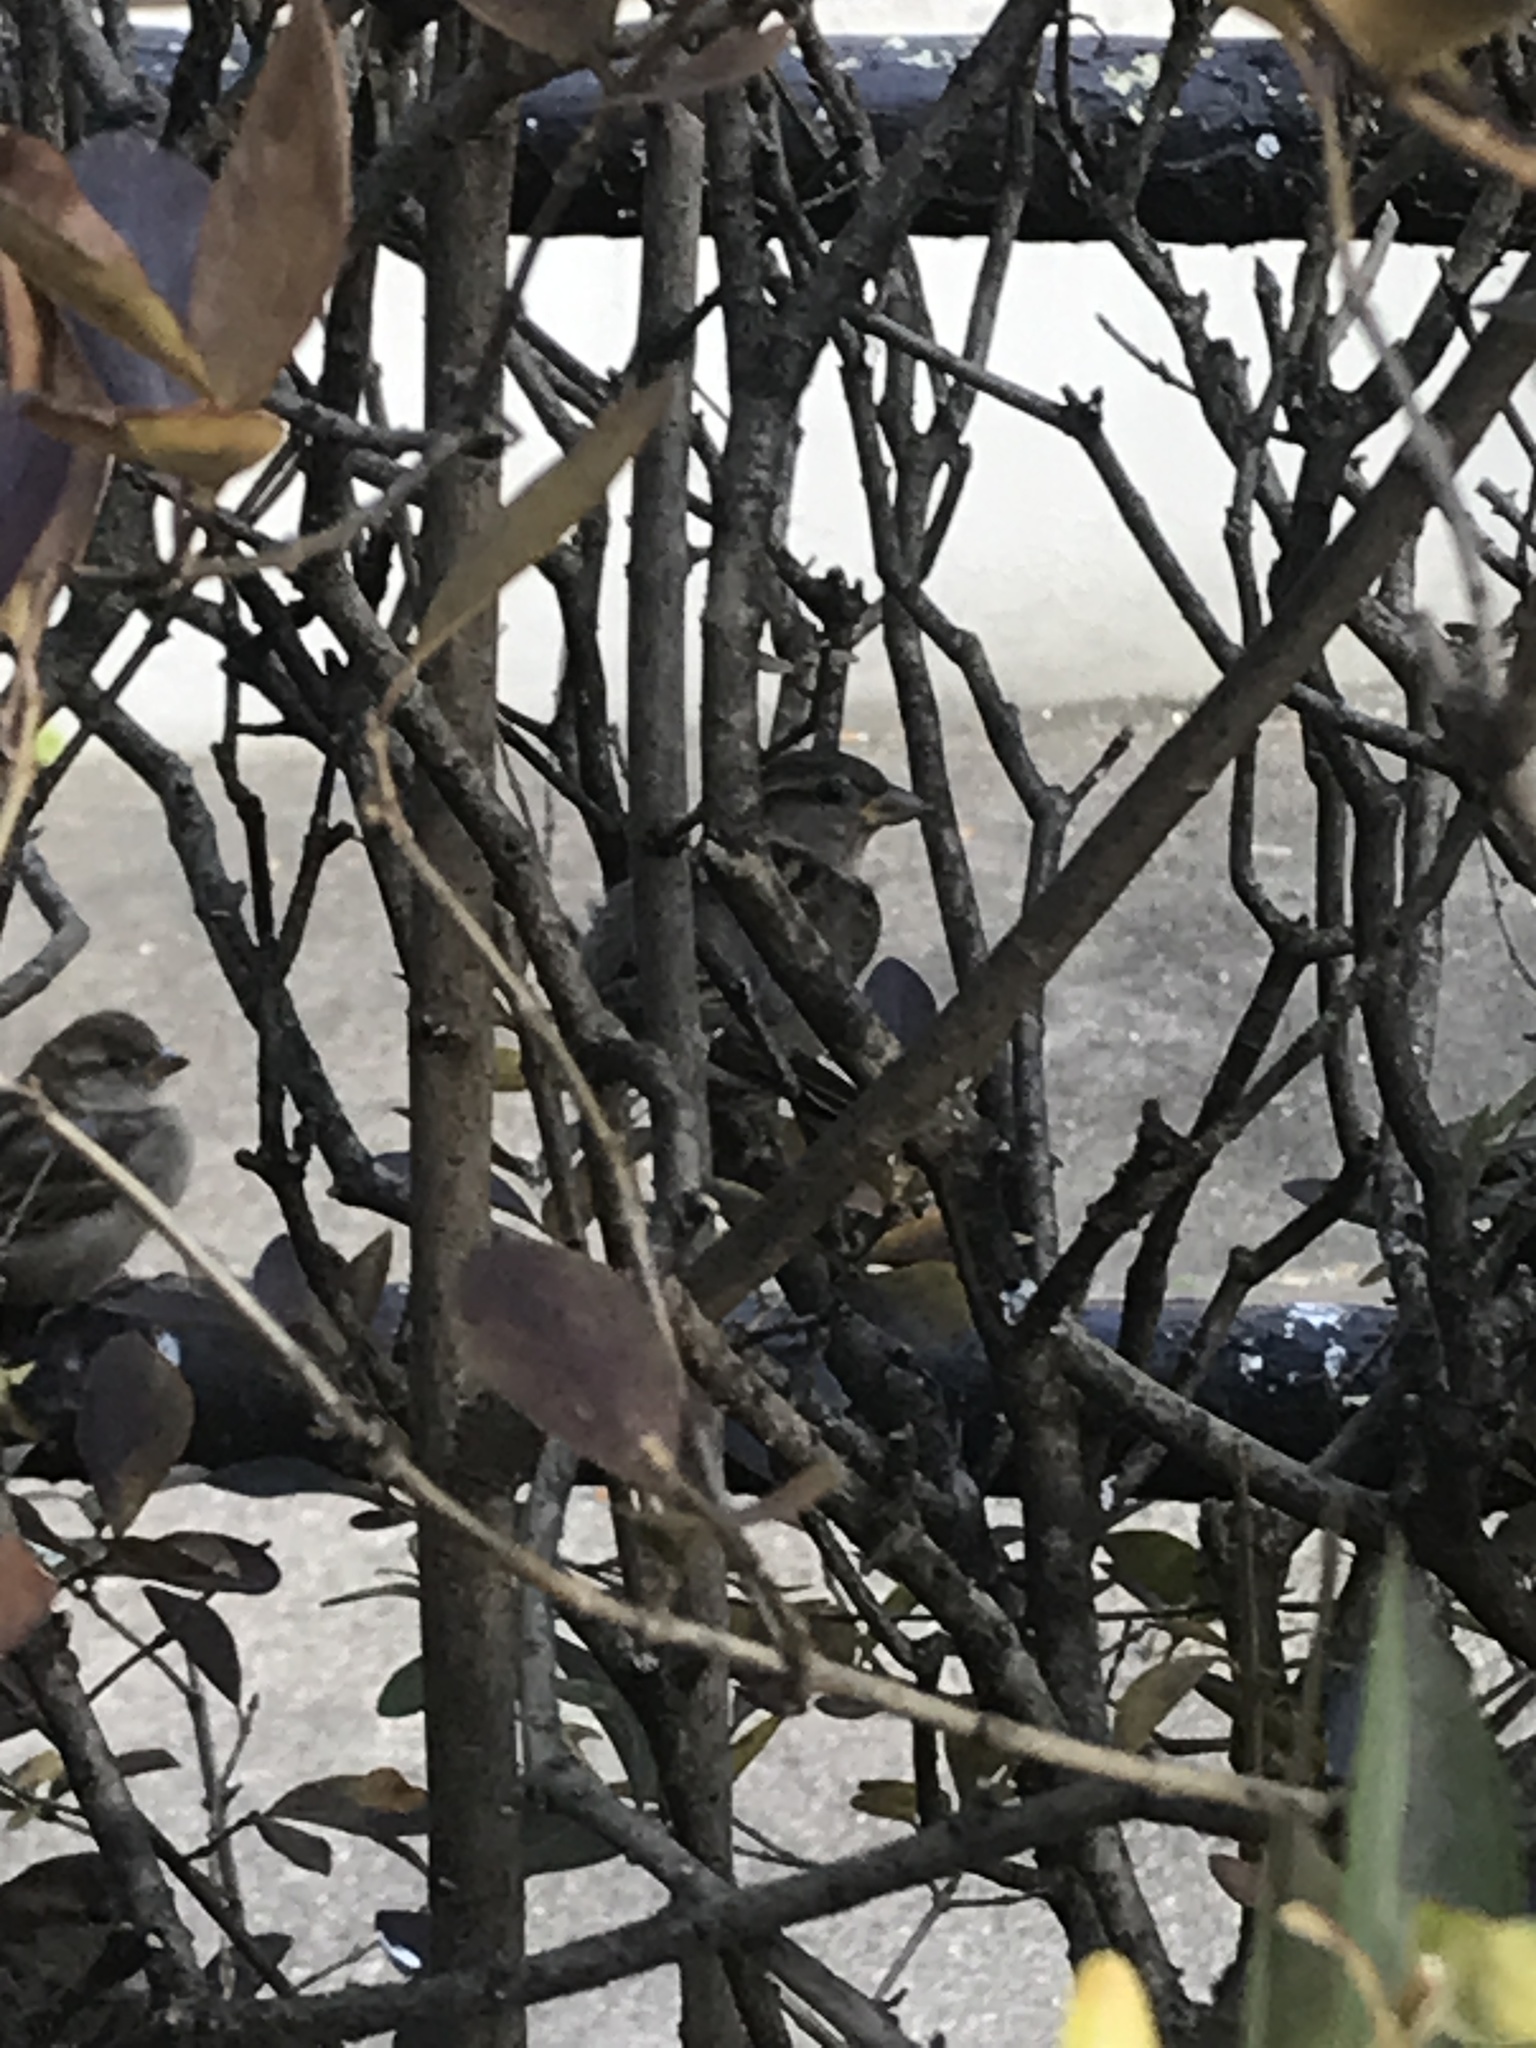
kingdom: Animalia
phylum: Chordata
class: Aves
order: Passeriformes
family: Passeridae
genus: Passer
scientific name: Passer domesticus
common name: House sparrow
